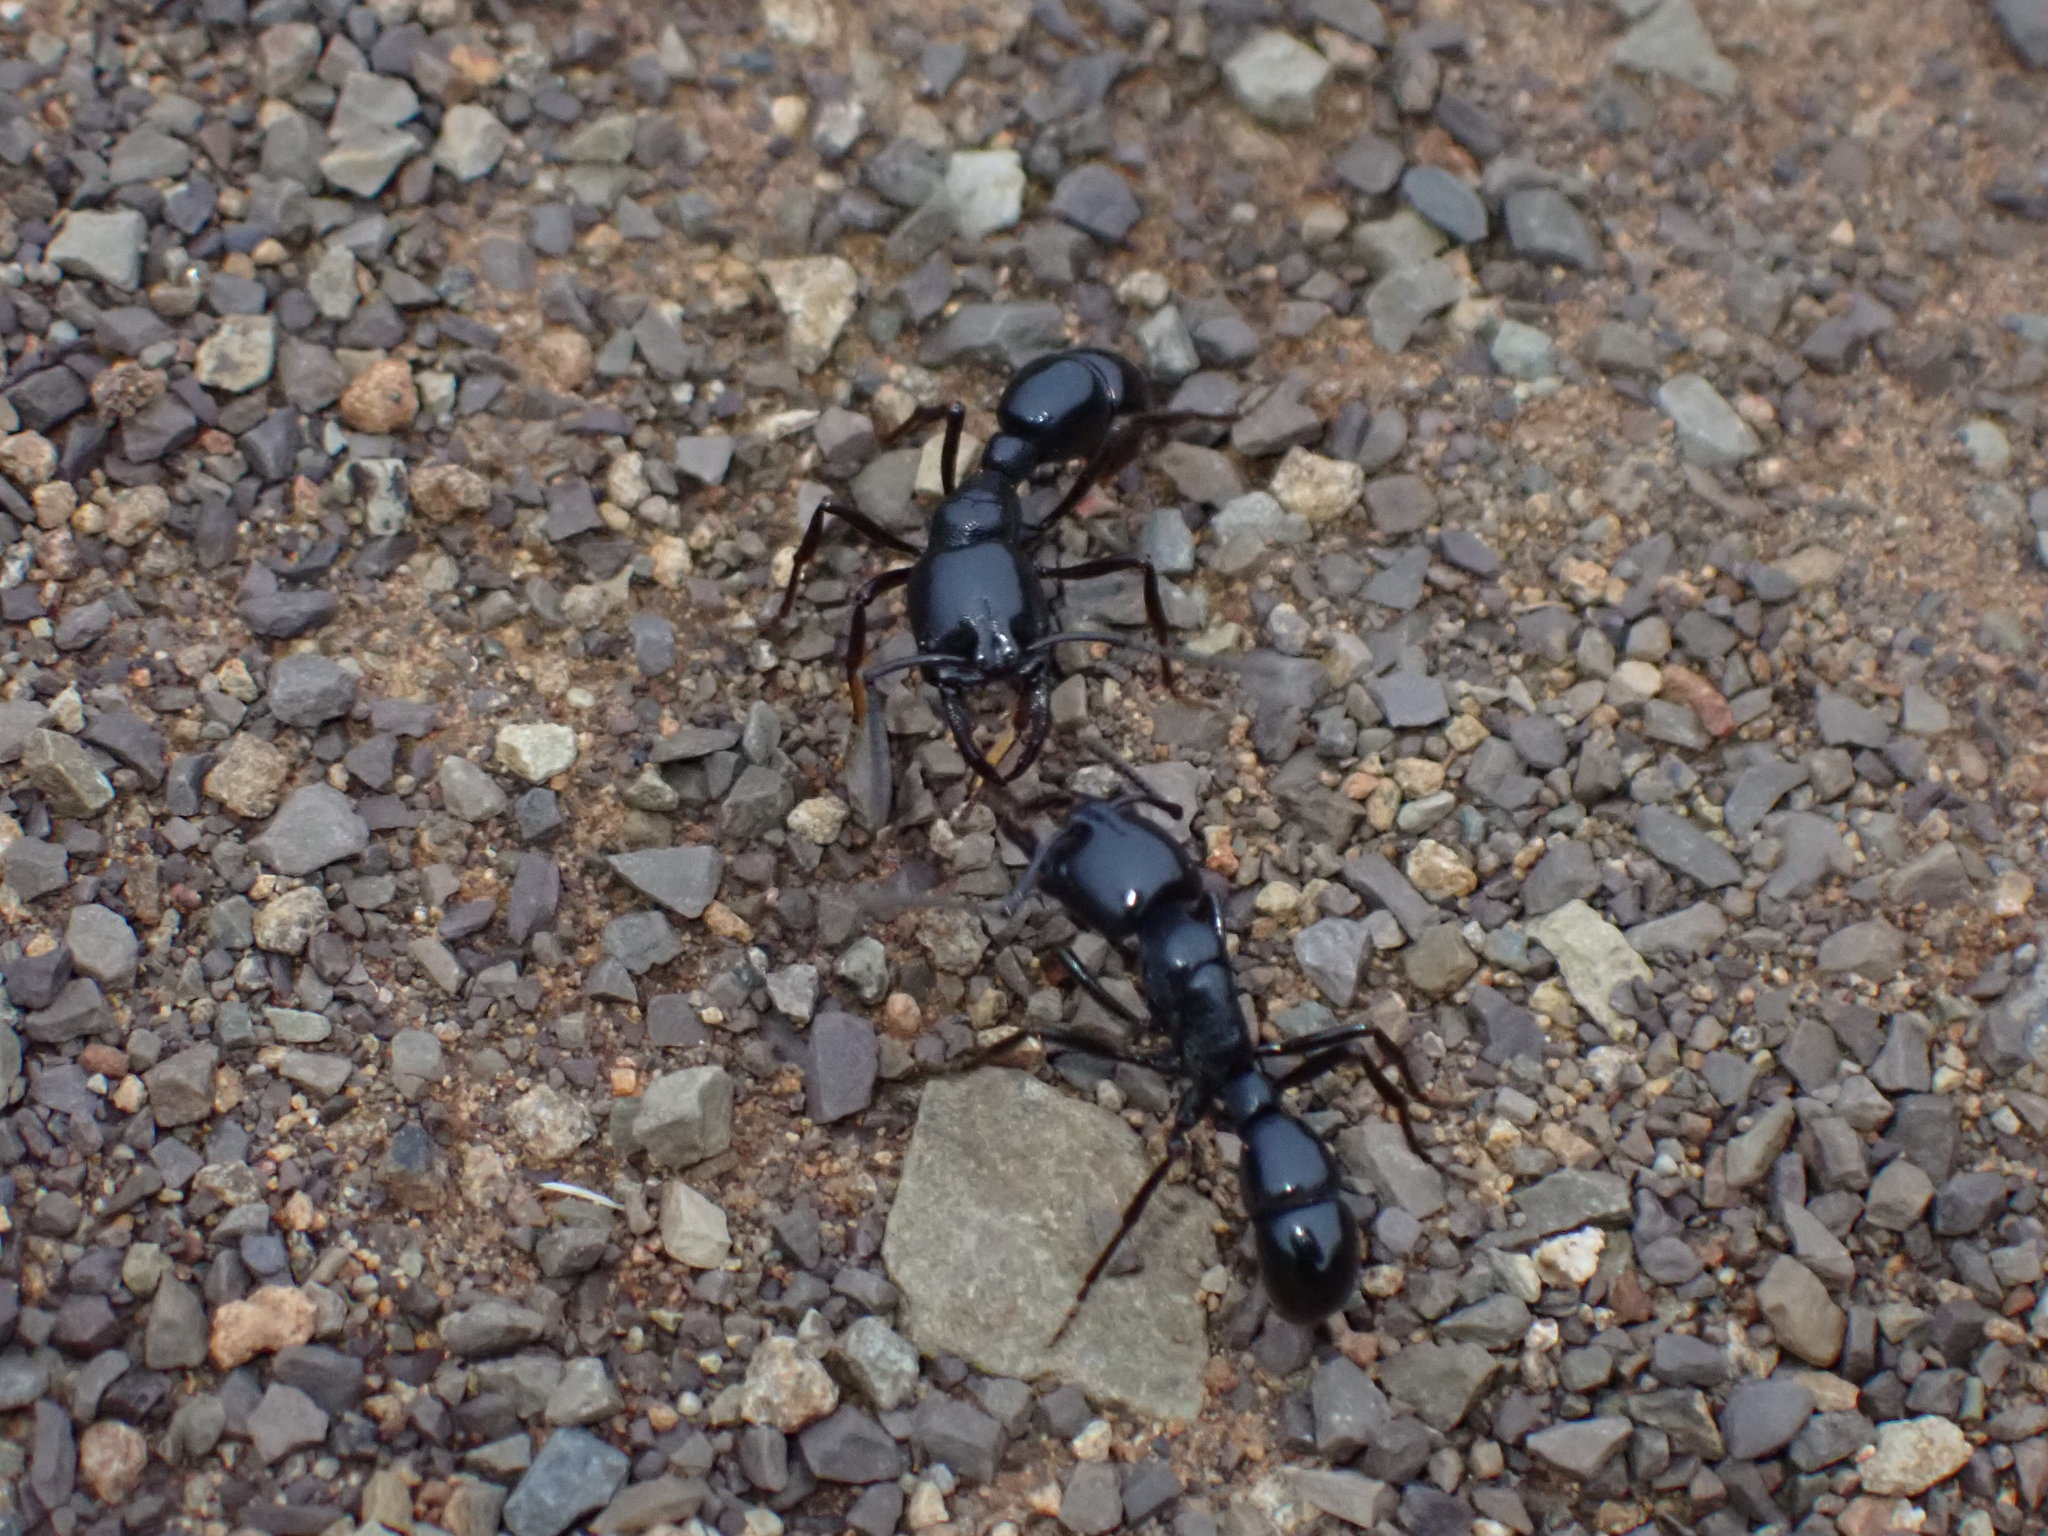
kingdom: Animalia
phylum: Arthropoda
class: Insecta
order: Hymenoptera
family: Formicidae
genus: Plectroctena
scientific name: Plectroctena mandibularis
